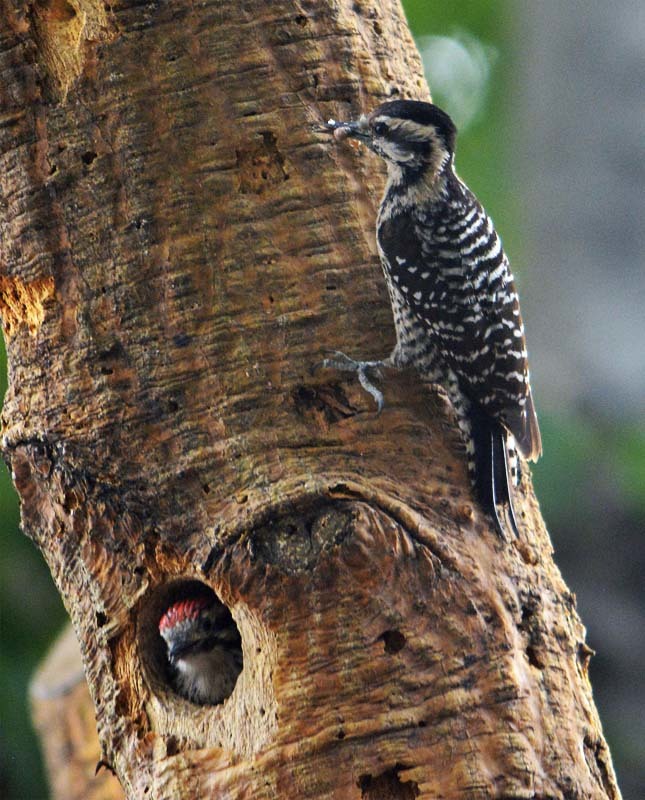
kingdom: Animalia
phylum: Chordata
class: Aves
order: Piciformes
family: Picidae
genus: Dryobates
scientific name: Dryobates scalaris
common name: Ladder-backed woodpecker
